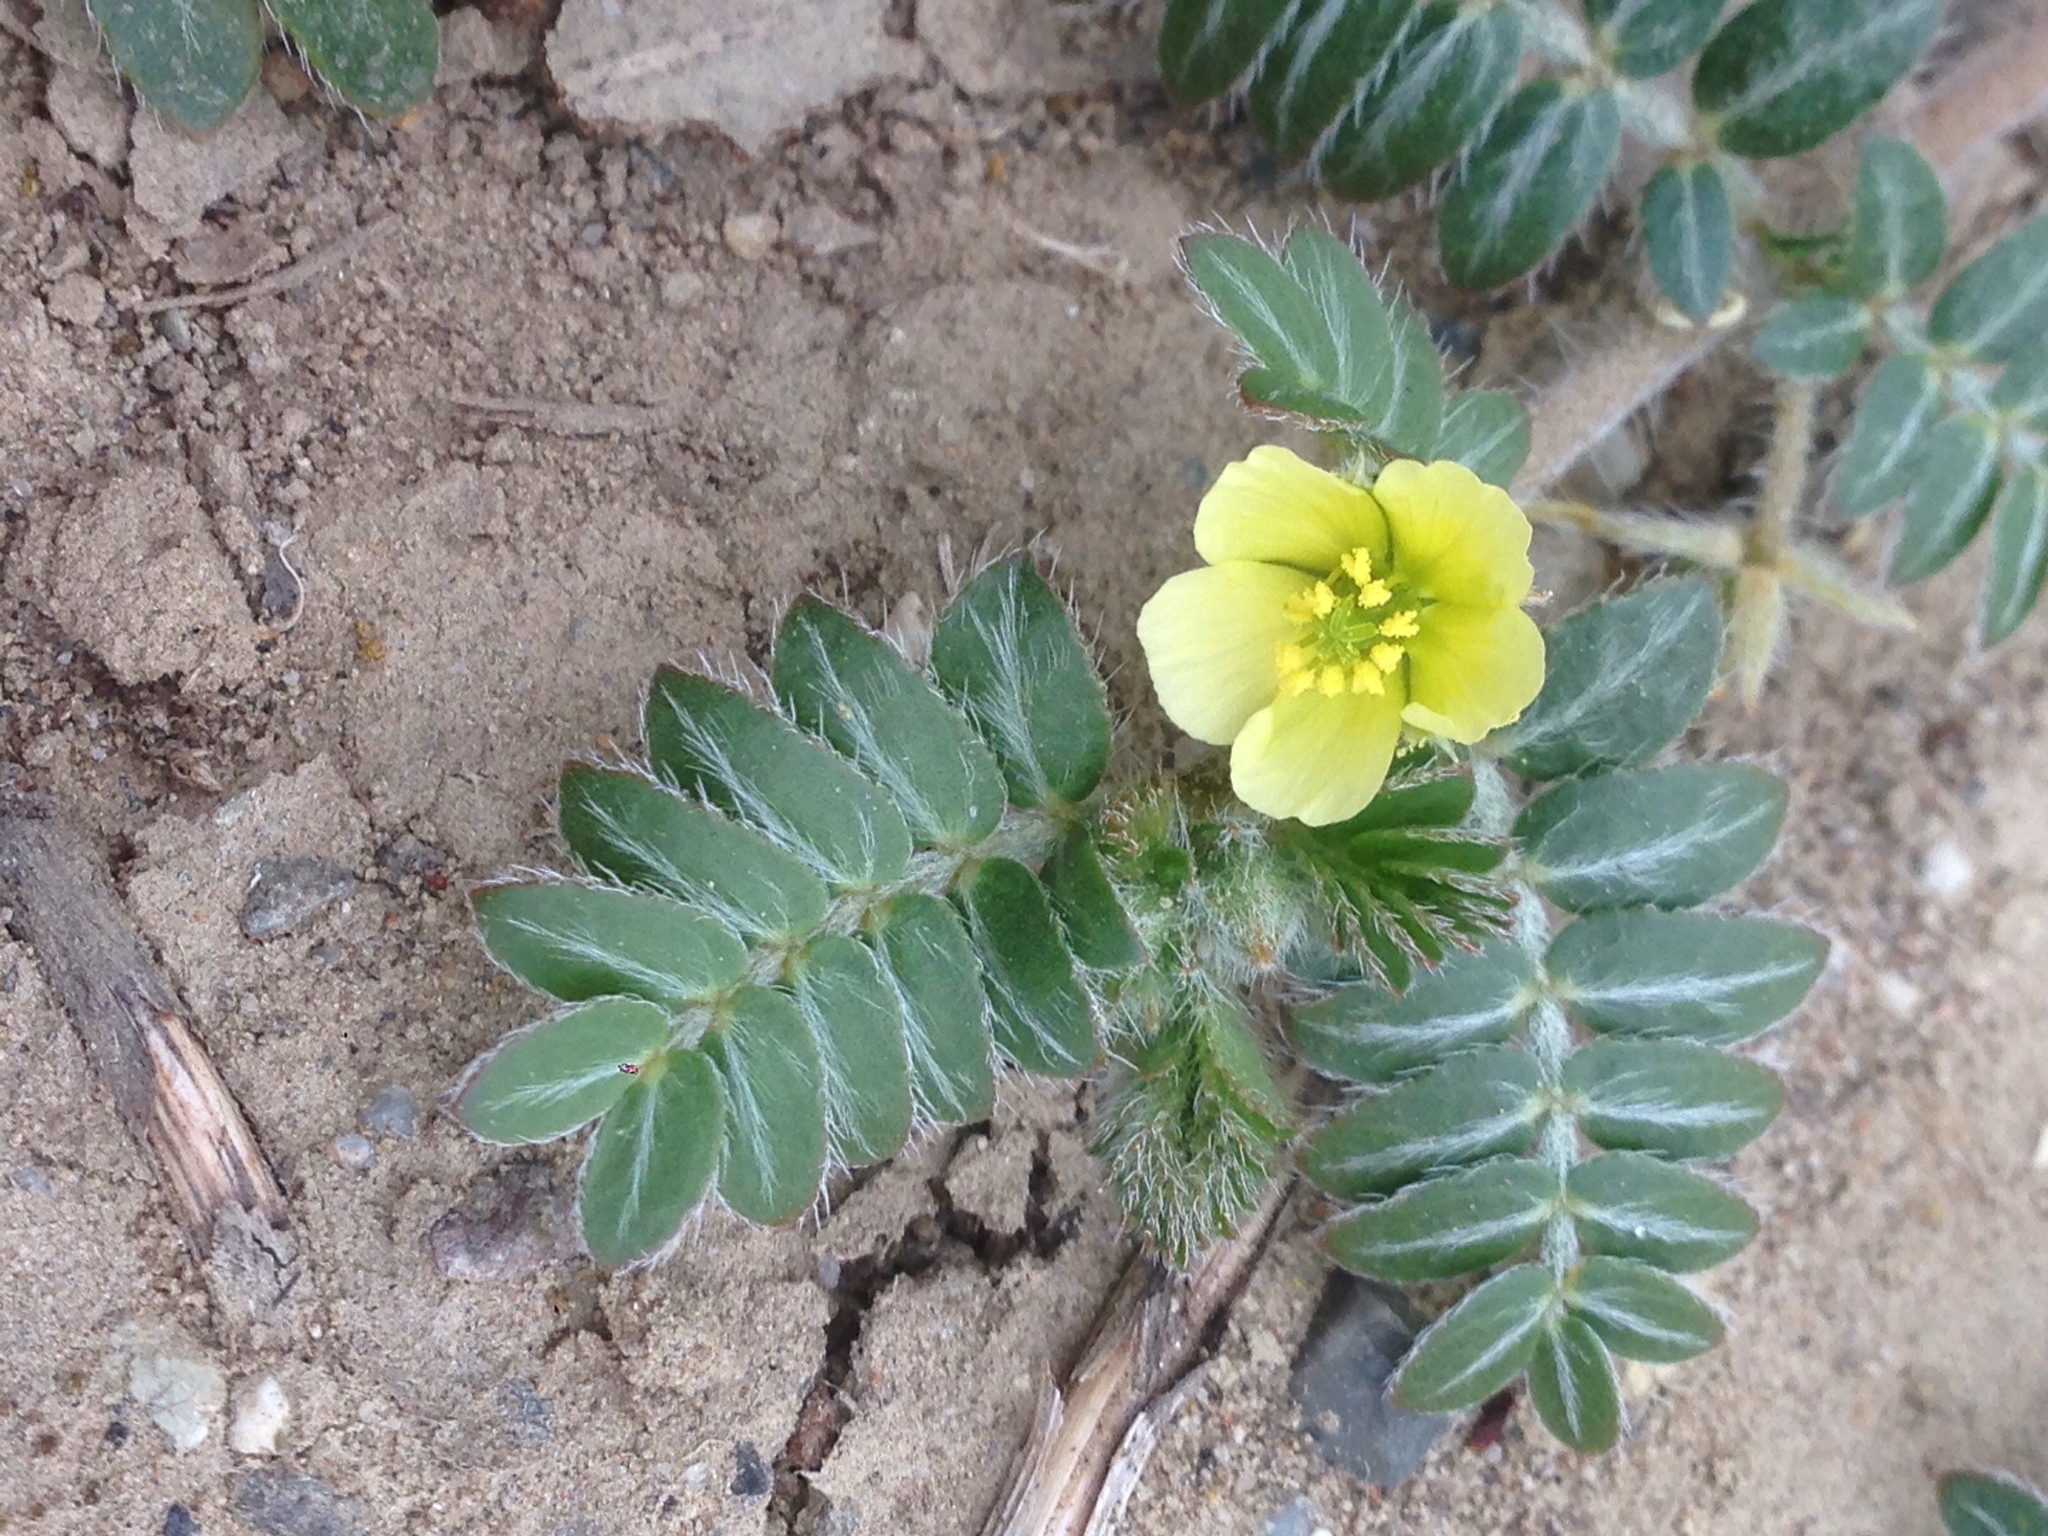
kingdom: Plantae
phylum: Tracheophyta
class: Magnoliopsida
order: Zygophyllales
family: Zygophyllaceae
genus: Tribulus
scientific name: Tribulus terrestris
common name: Puncturevine
